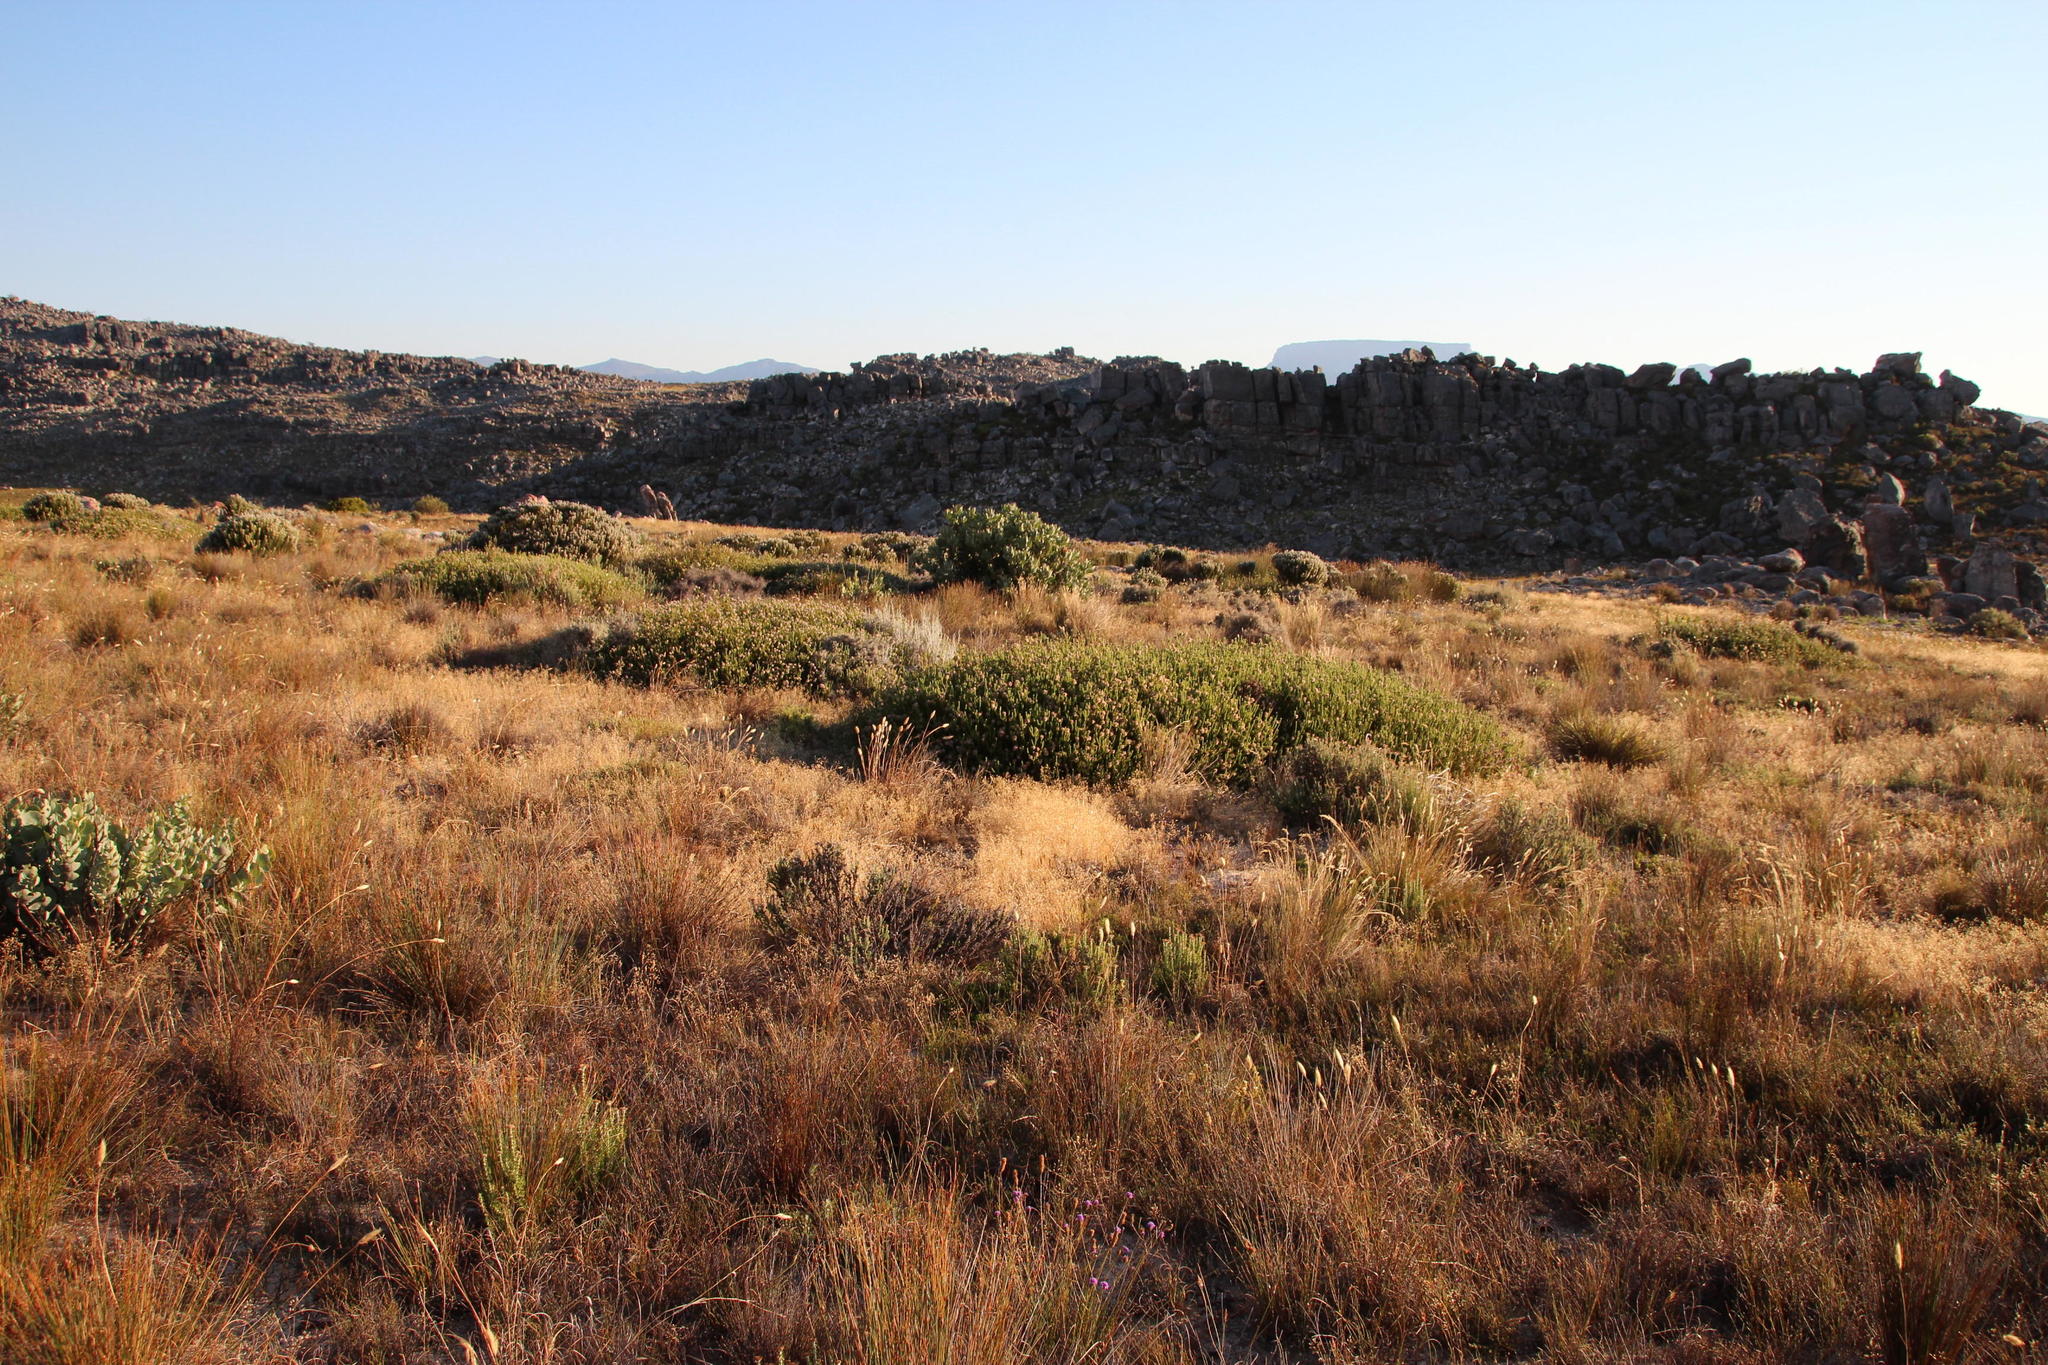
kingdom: Plantae
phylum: Tracheophyta
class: Magnoliopsida
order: Proteales
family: Proteaceae
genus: Sorocephalus
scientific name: Sorocephalus lanatus
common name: Common clusterhead
